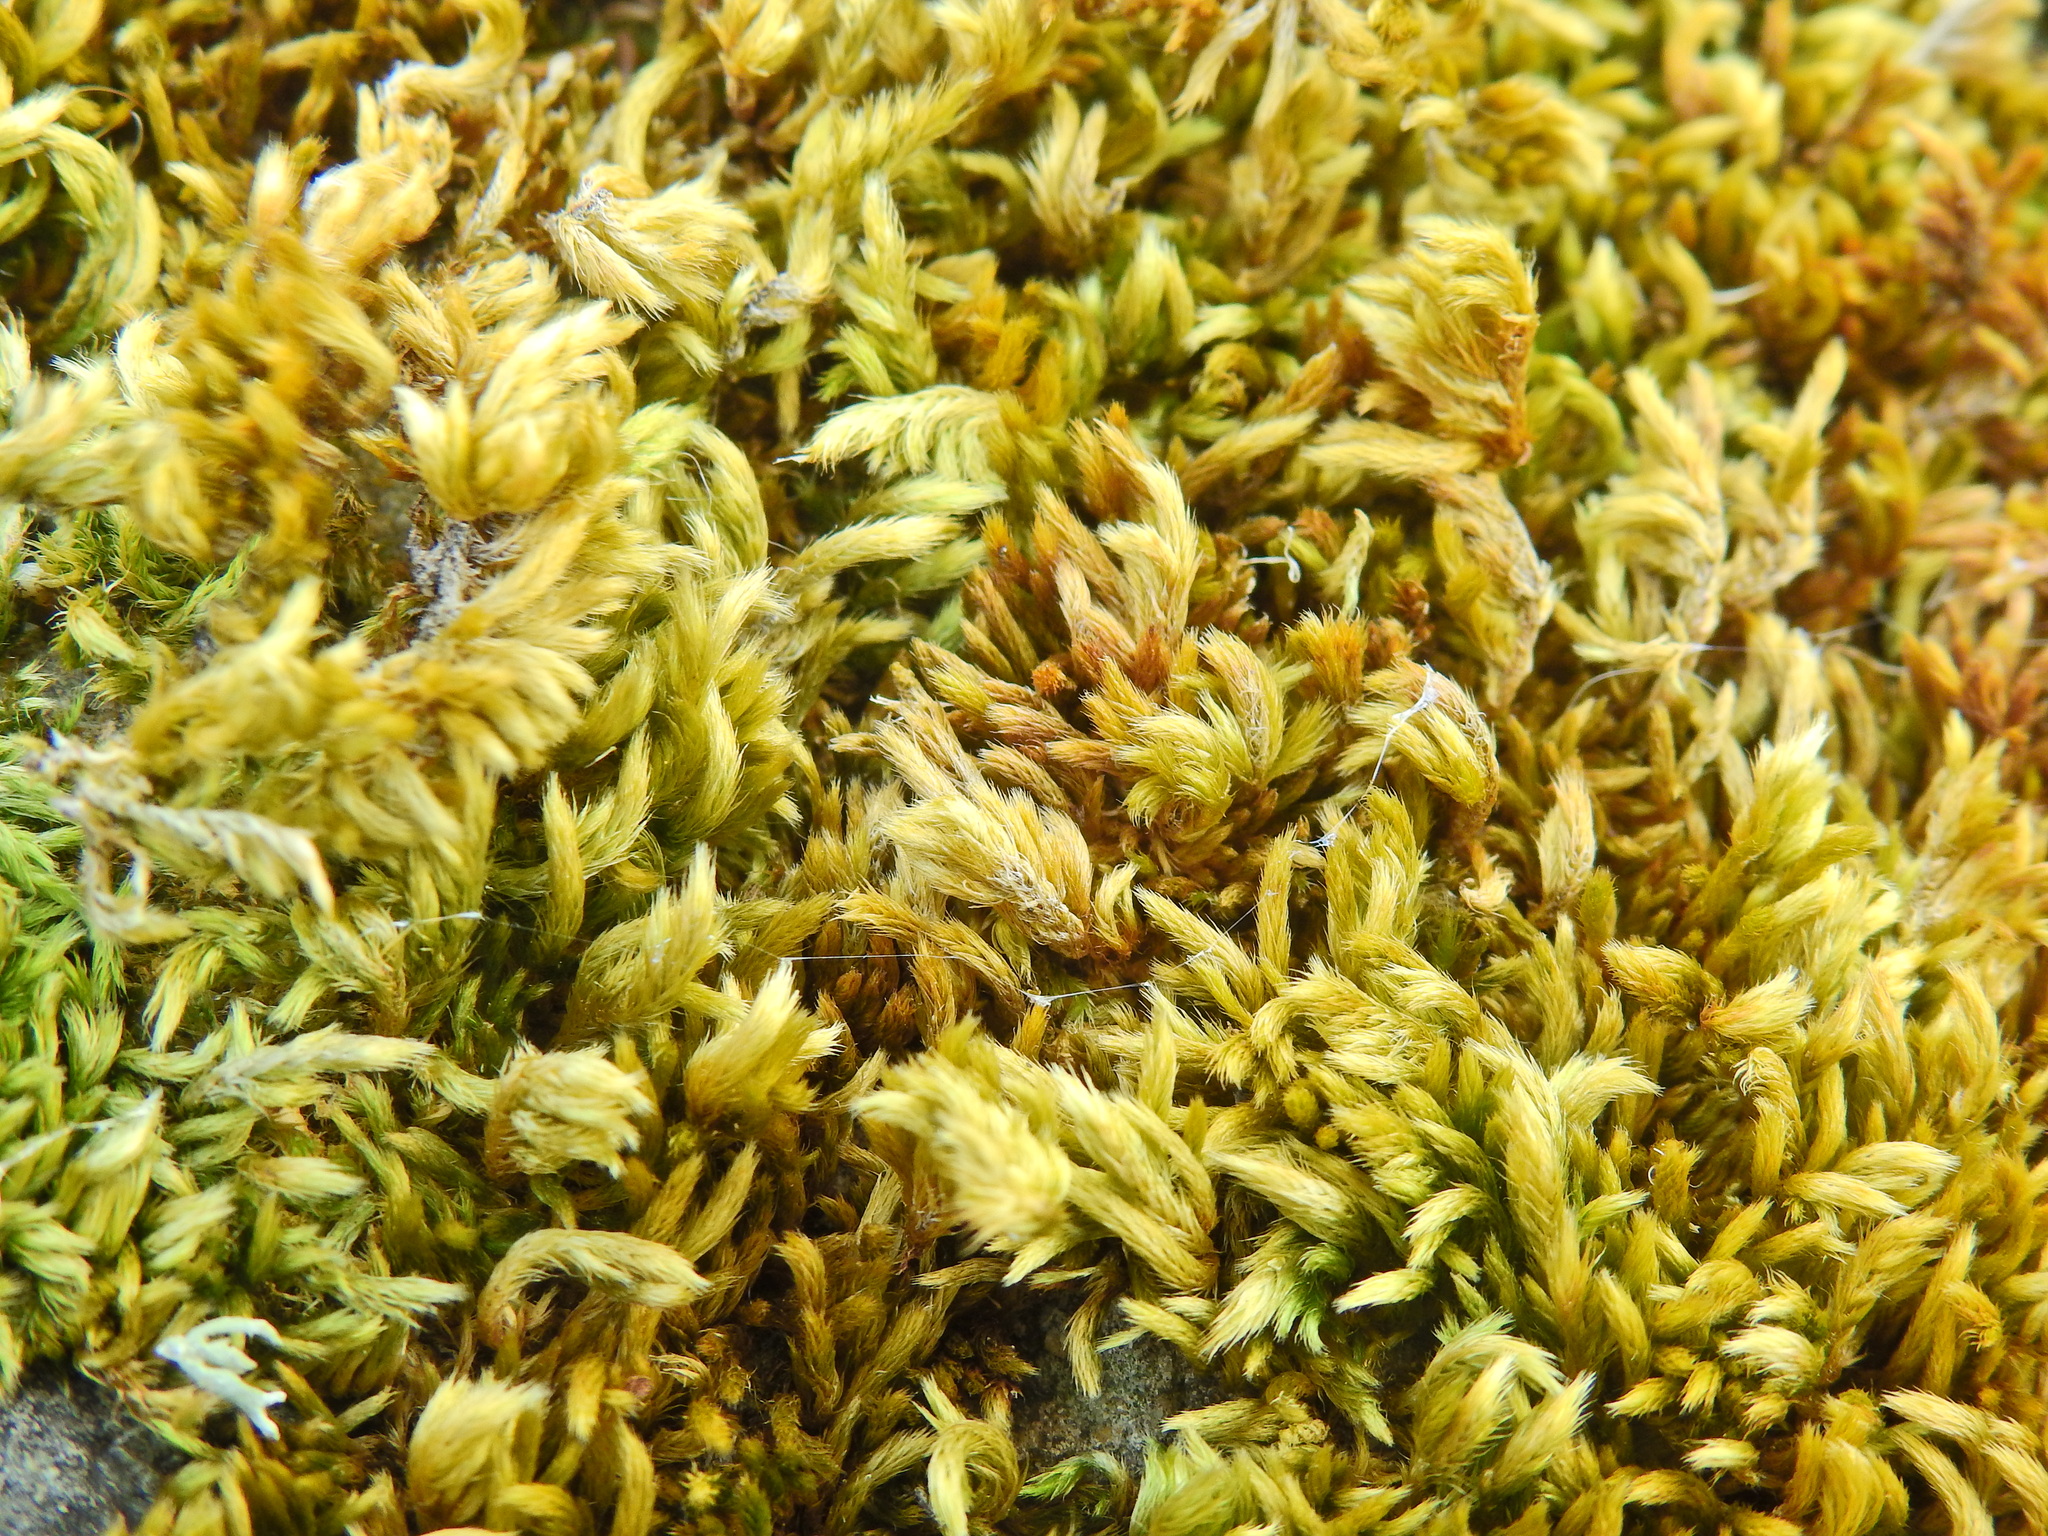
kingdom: Plantae
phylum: Bryophyta
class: Bryopsida
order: Hypnales
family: Brachytheciaceae
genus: Homalothecium
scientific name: Homalothecium sericeum
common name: Silky wall feather-moss
